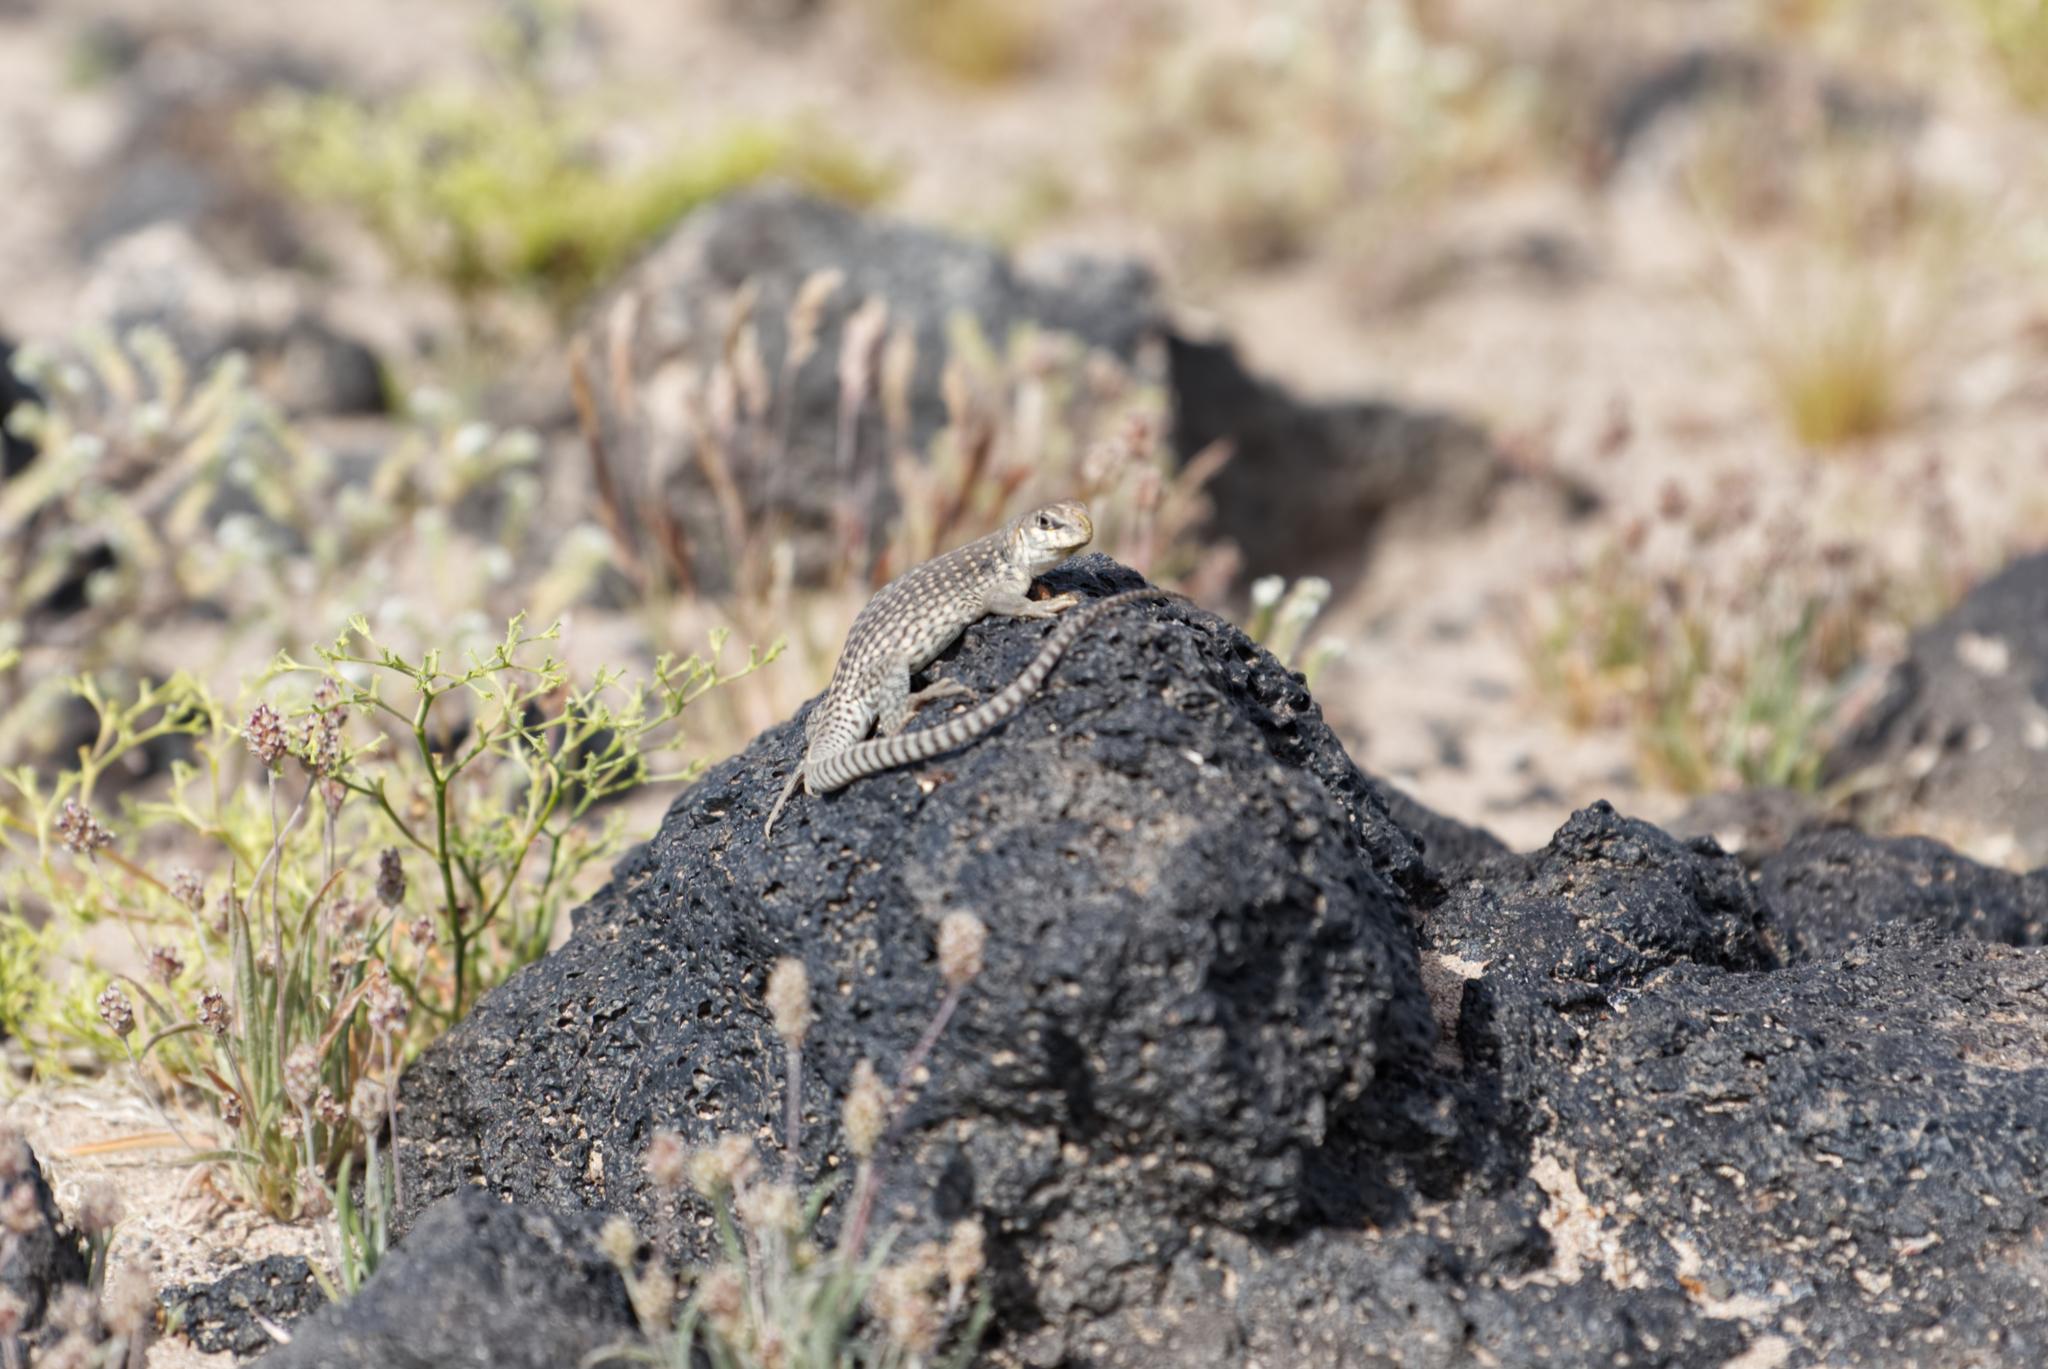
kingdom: Animalia
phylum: Chordata
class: Squamata
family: Iguanidae
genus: Dipsosaurus
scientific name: Dipsosaurus dorsalis
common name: Desert iguana
